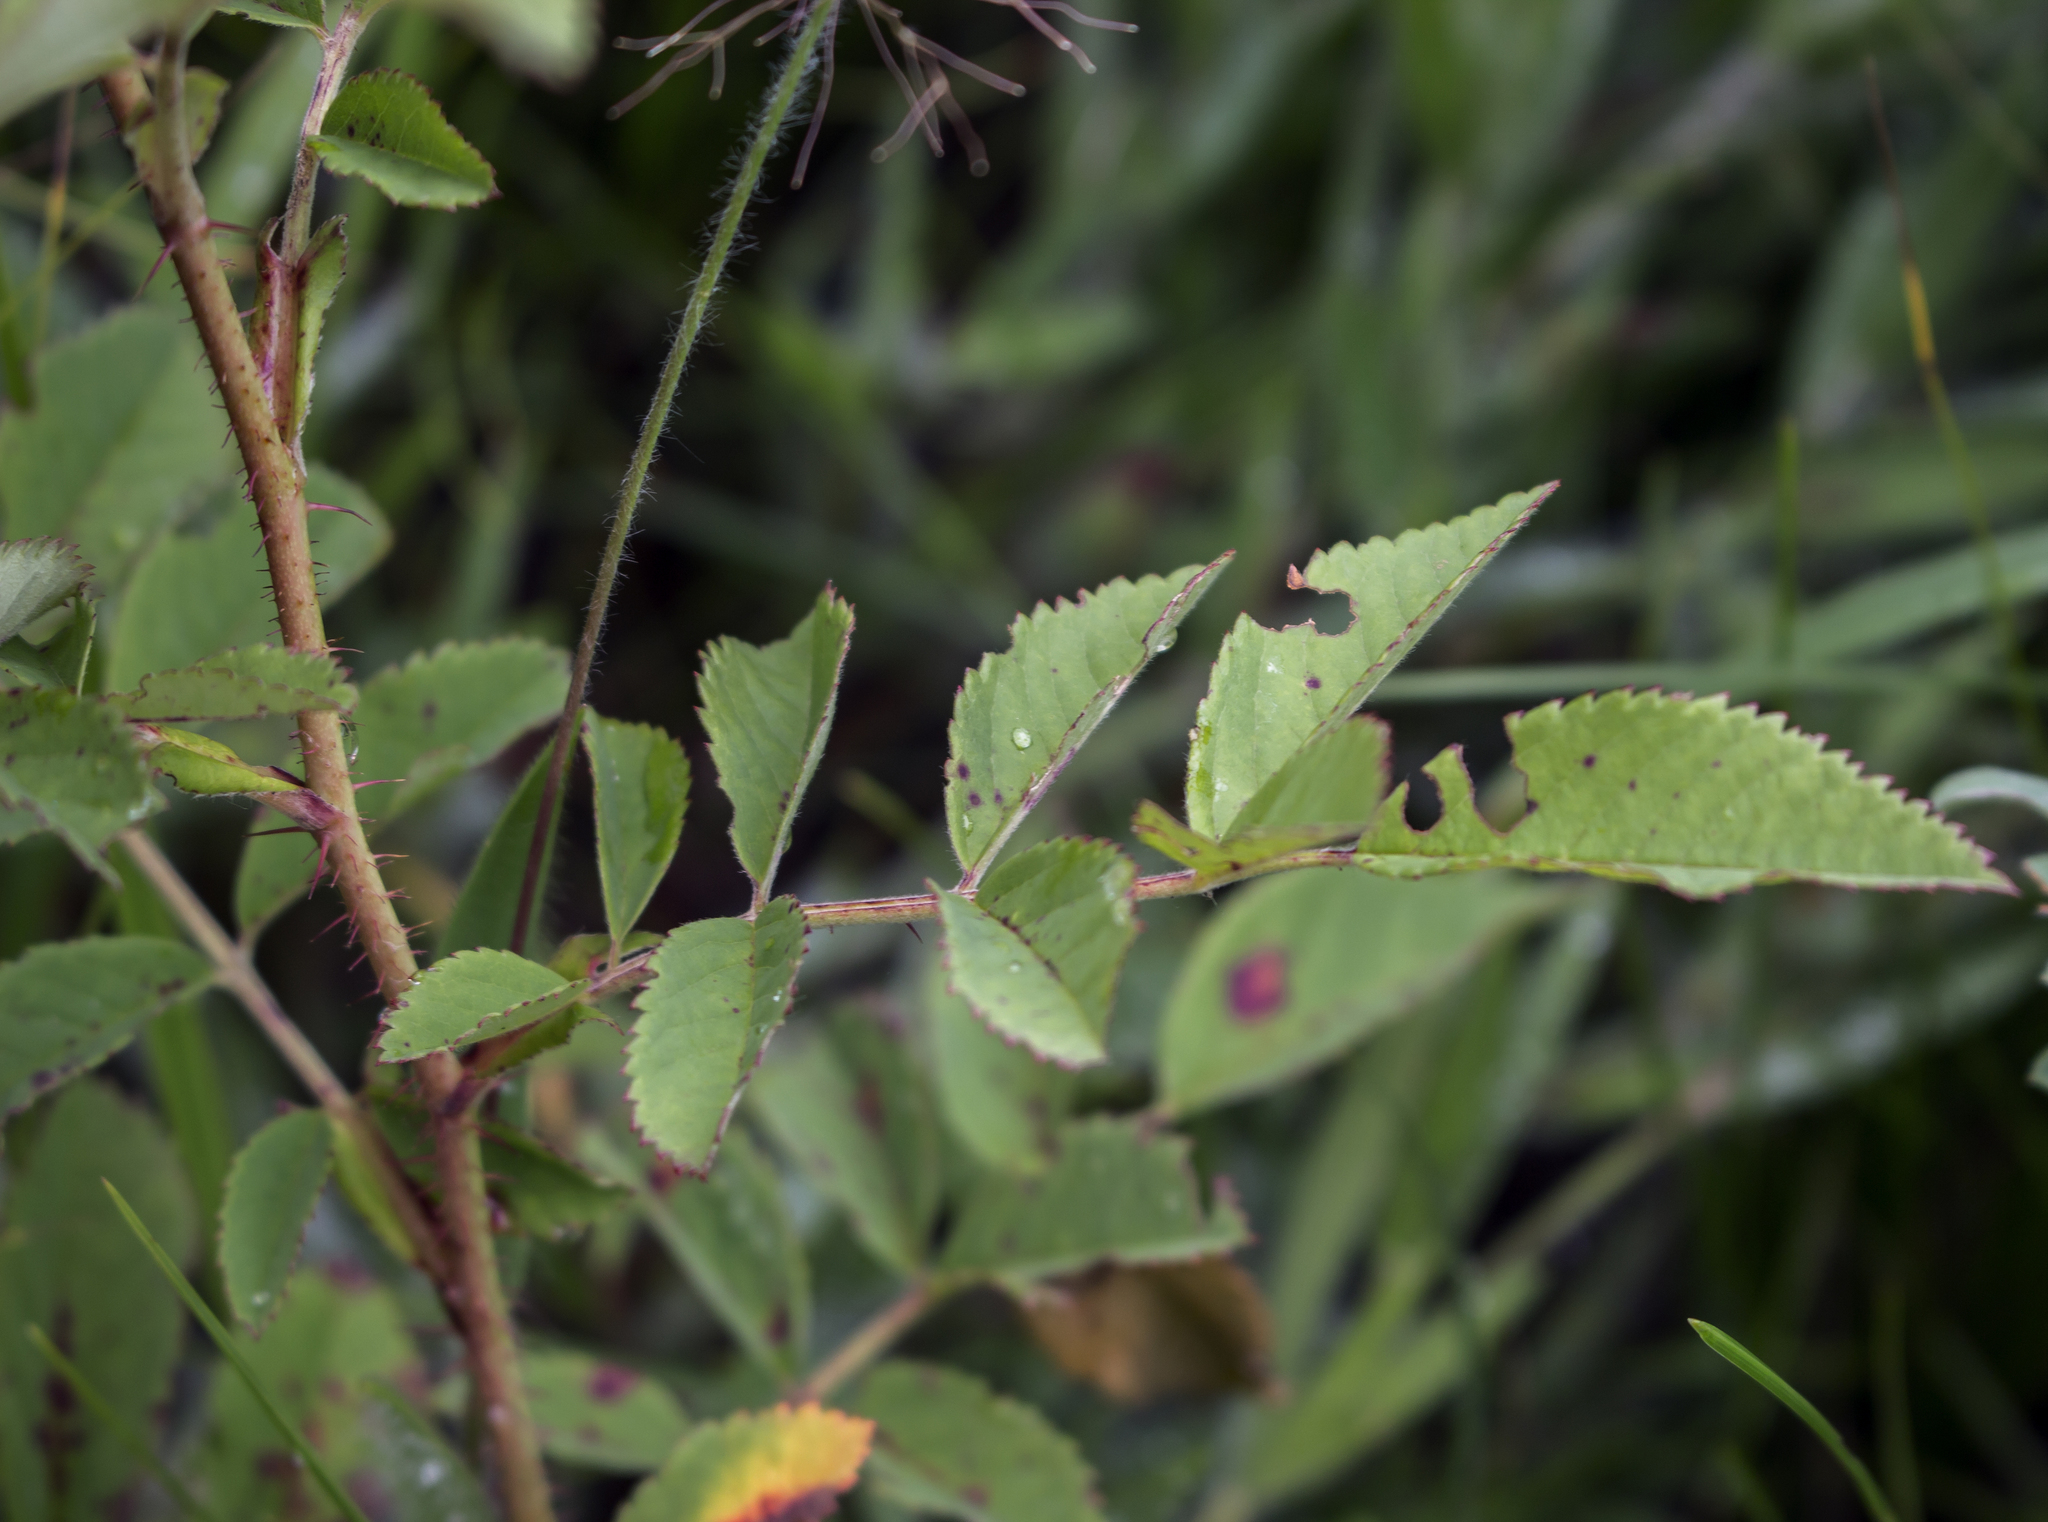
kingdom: Plantae
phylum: Tracheophyta
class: Magnoliopsida
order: Rosales
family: Rosaceae
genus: Rosa
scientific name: Rosa arkansana
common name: Prairie rose
